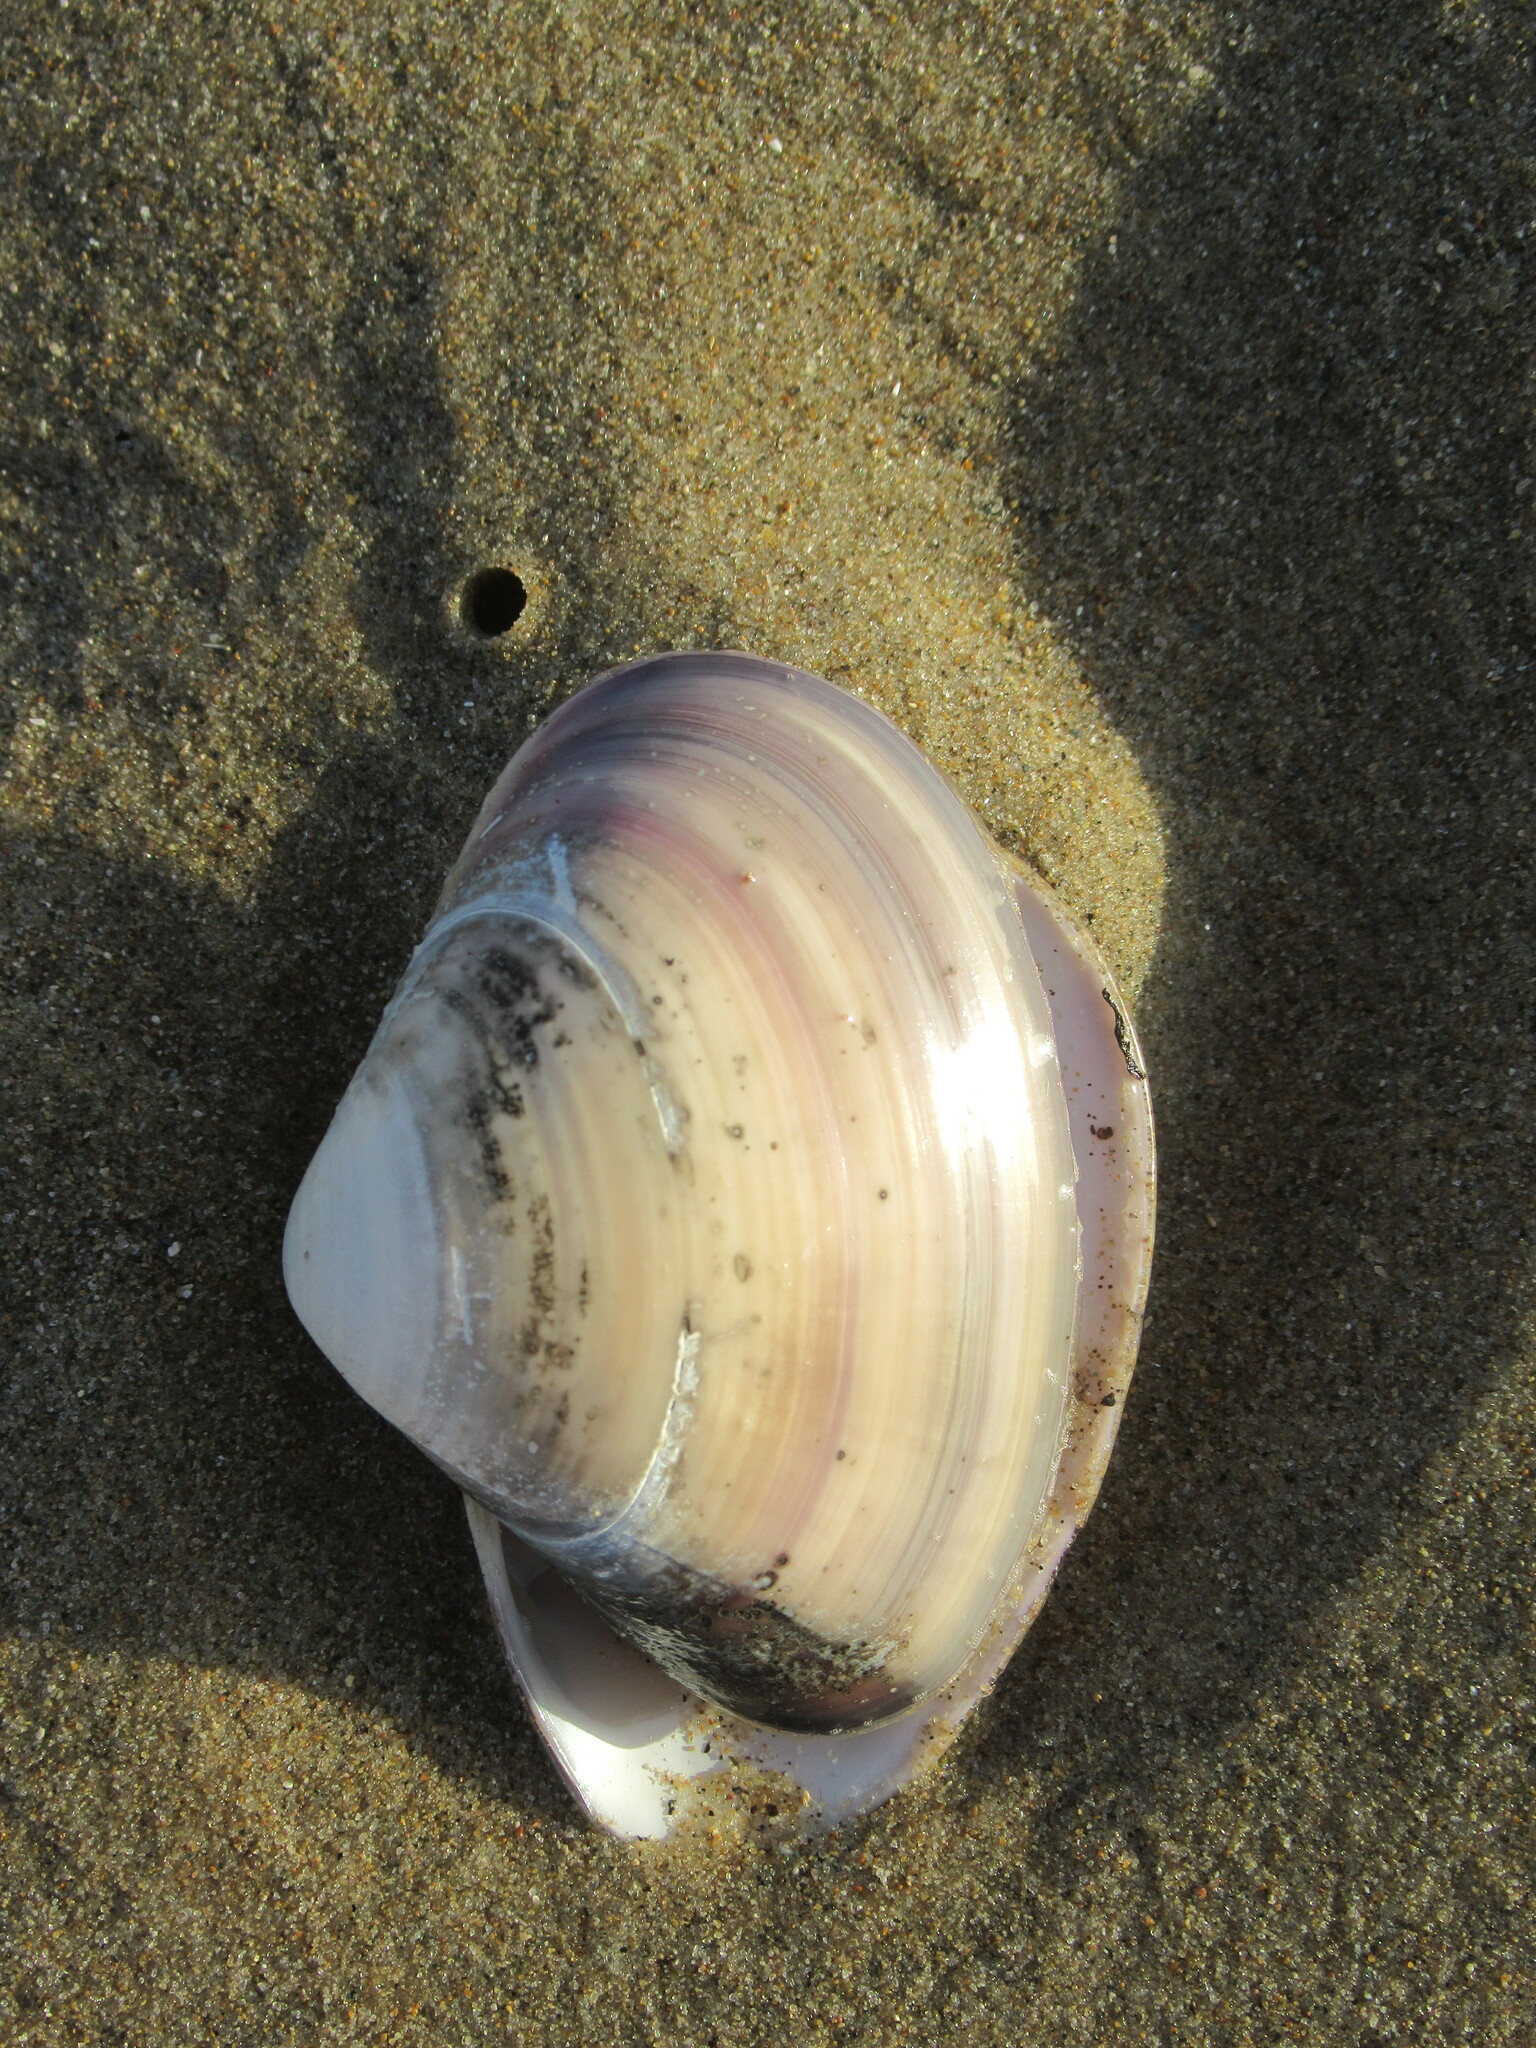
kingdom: Animalia
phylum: Mollusca
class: Bivalvia
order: Venerida
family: Veneridae
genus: Tivela
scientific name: Tivela stultorum
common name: Pismo clam
